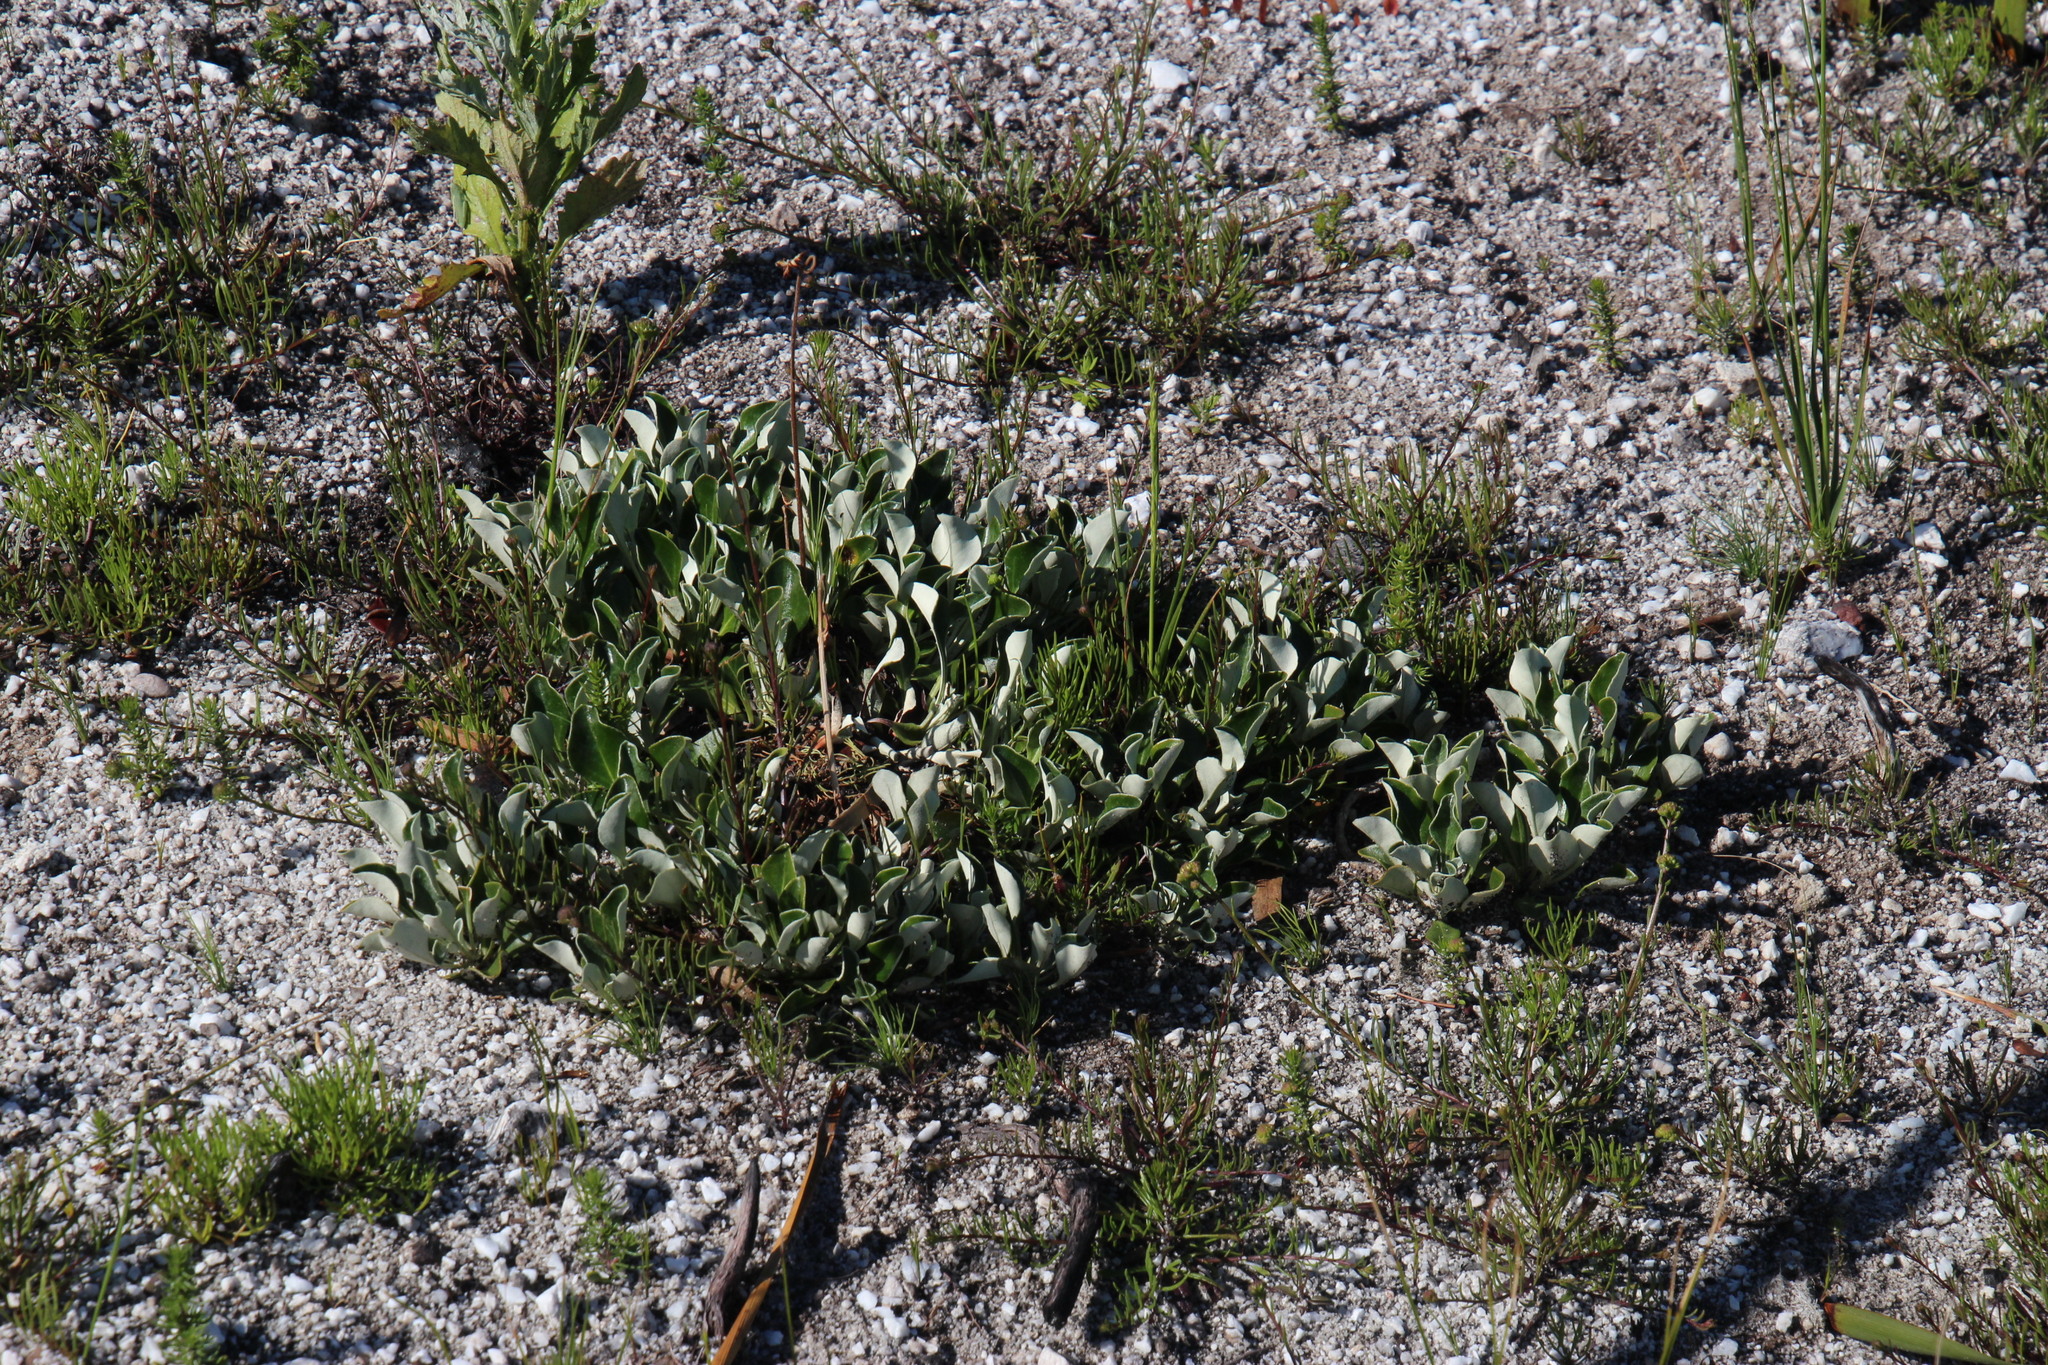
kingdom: Plantae
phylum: Tracheophyta
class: Magnoliopsida
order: Asterales
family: Asteraceae
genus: Osteospermum
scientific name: Osteospermum tomentosum
